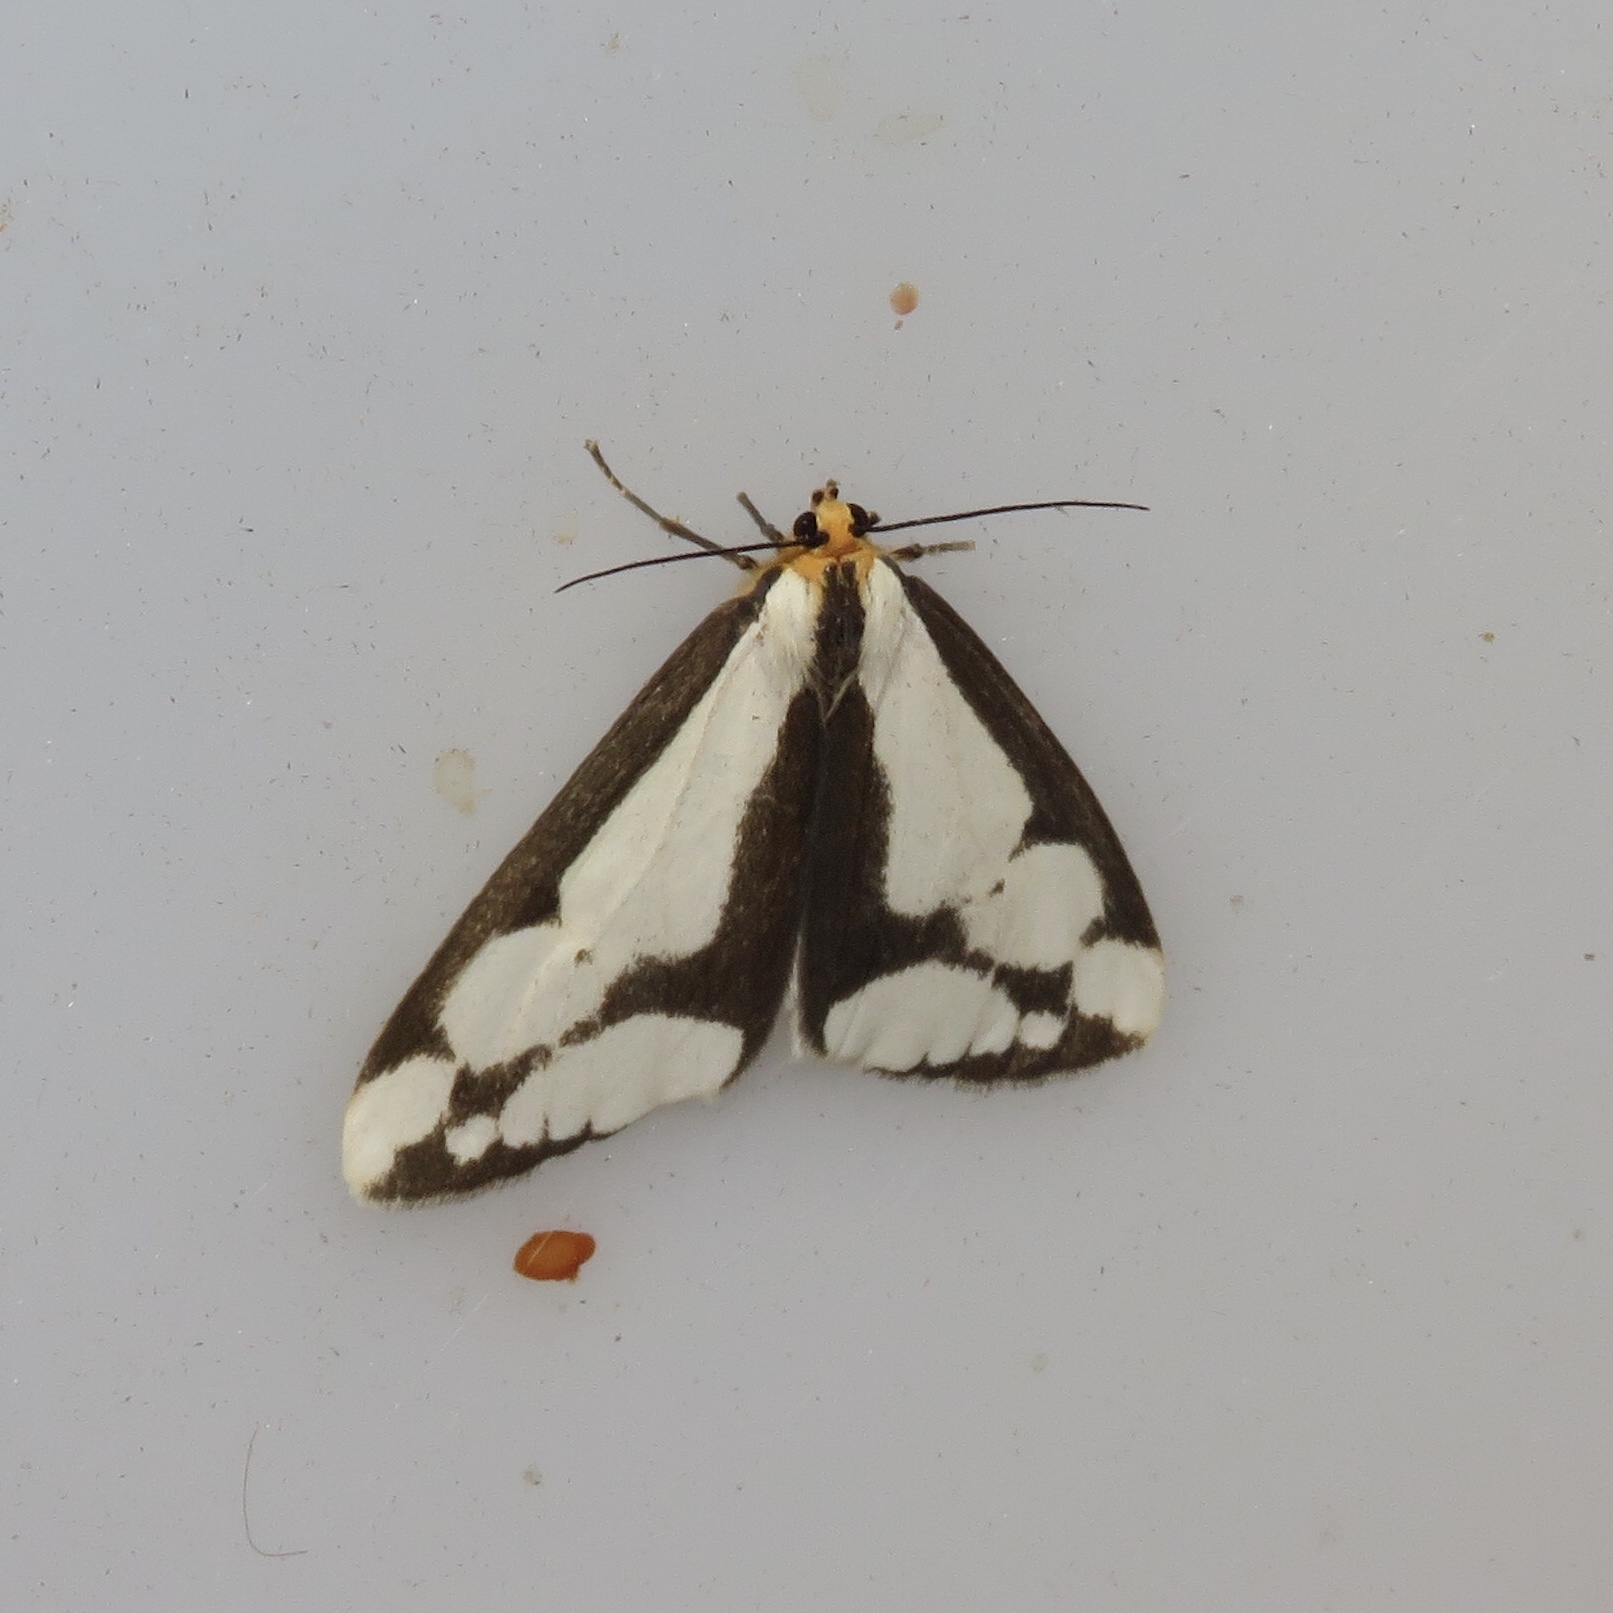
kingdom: Animalia
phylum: Arthropoda
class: Insecta
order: Lepidoptera
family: Erebidae
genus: Haploa
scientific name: Haploa lecontei
